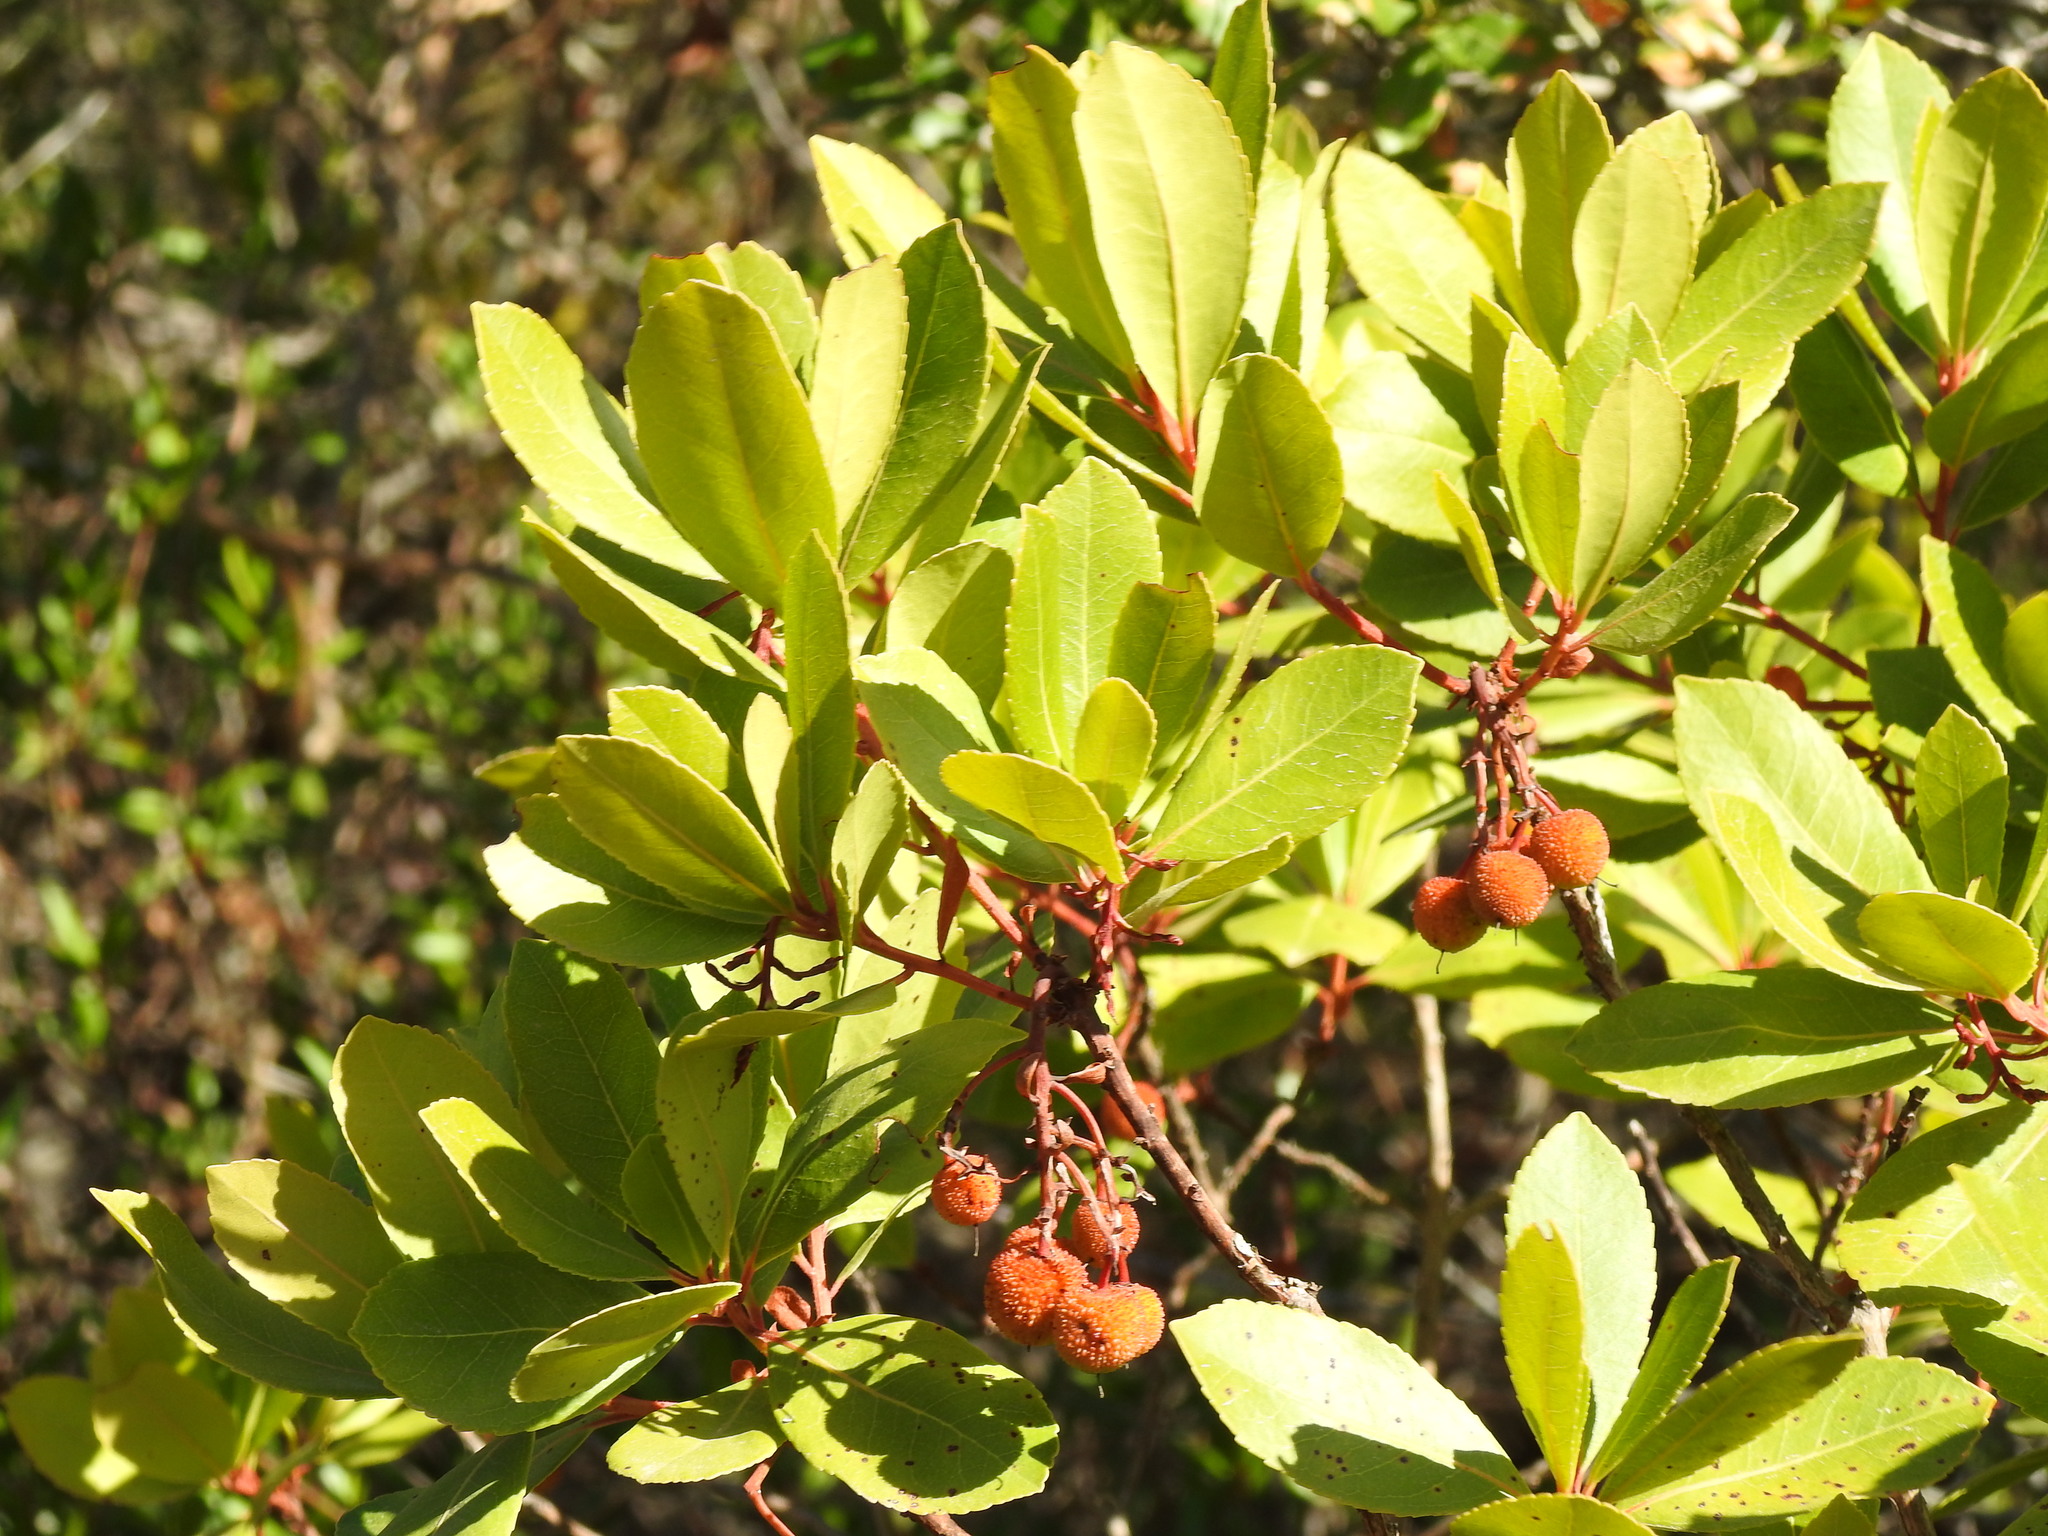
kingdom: Plantae
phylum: Tracheophyta
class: Magnoliopsida
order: Ericales
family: Ericaceae
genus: Arbutus
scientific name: Arbutus unedo
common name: Strawberry-tree
